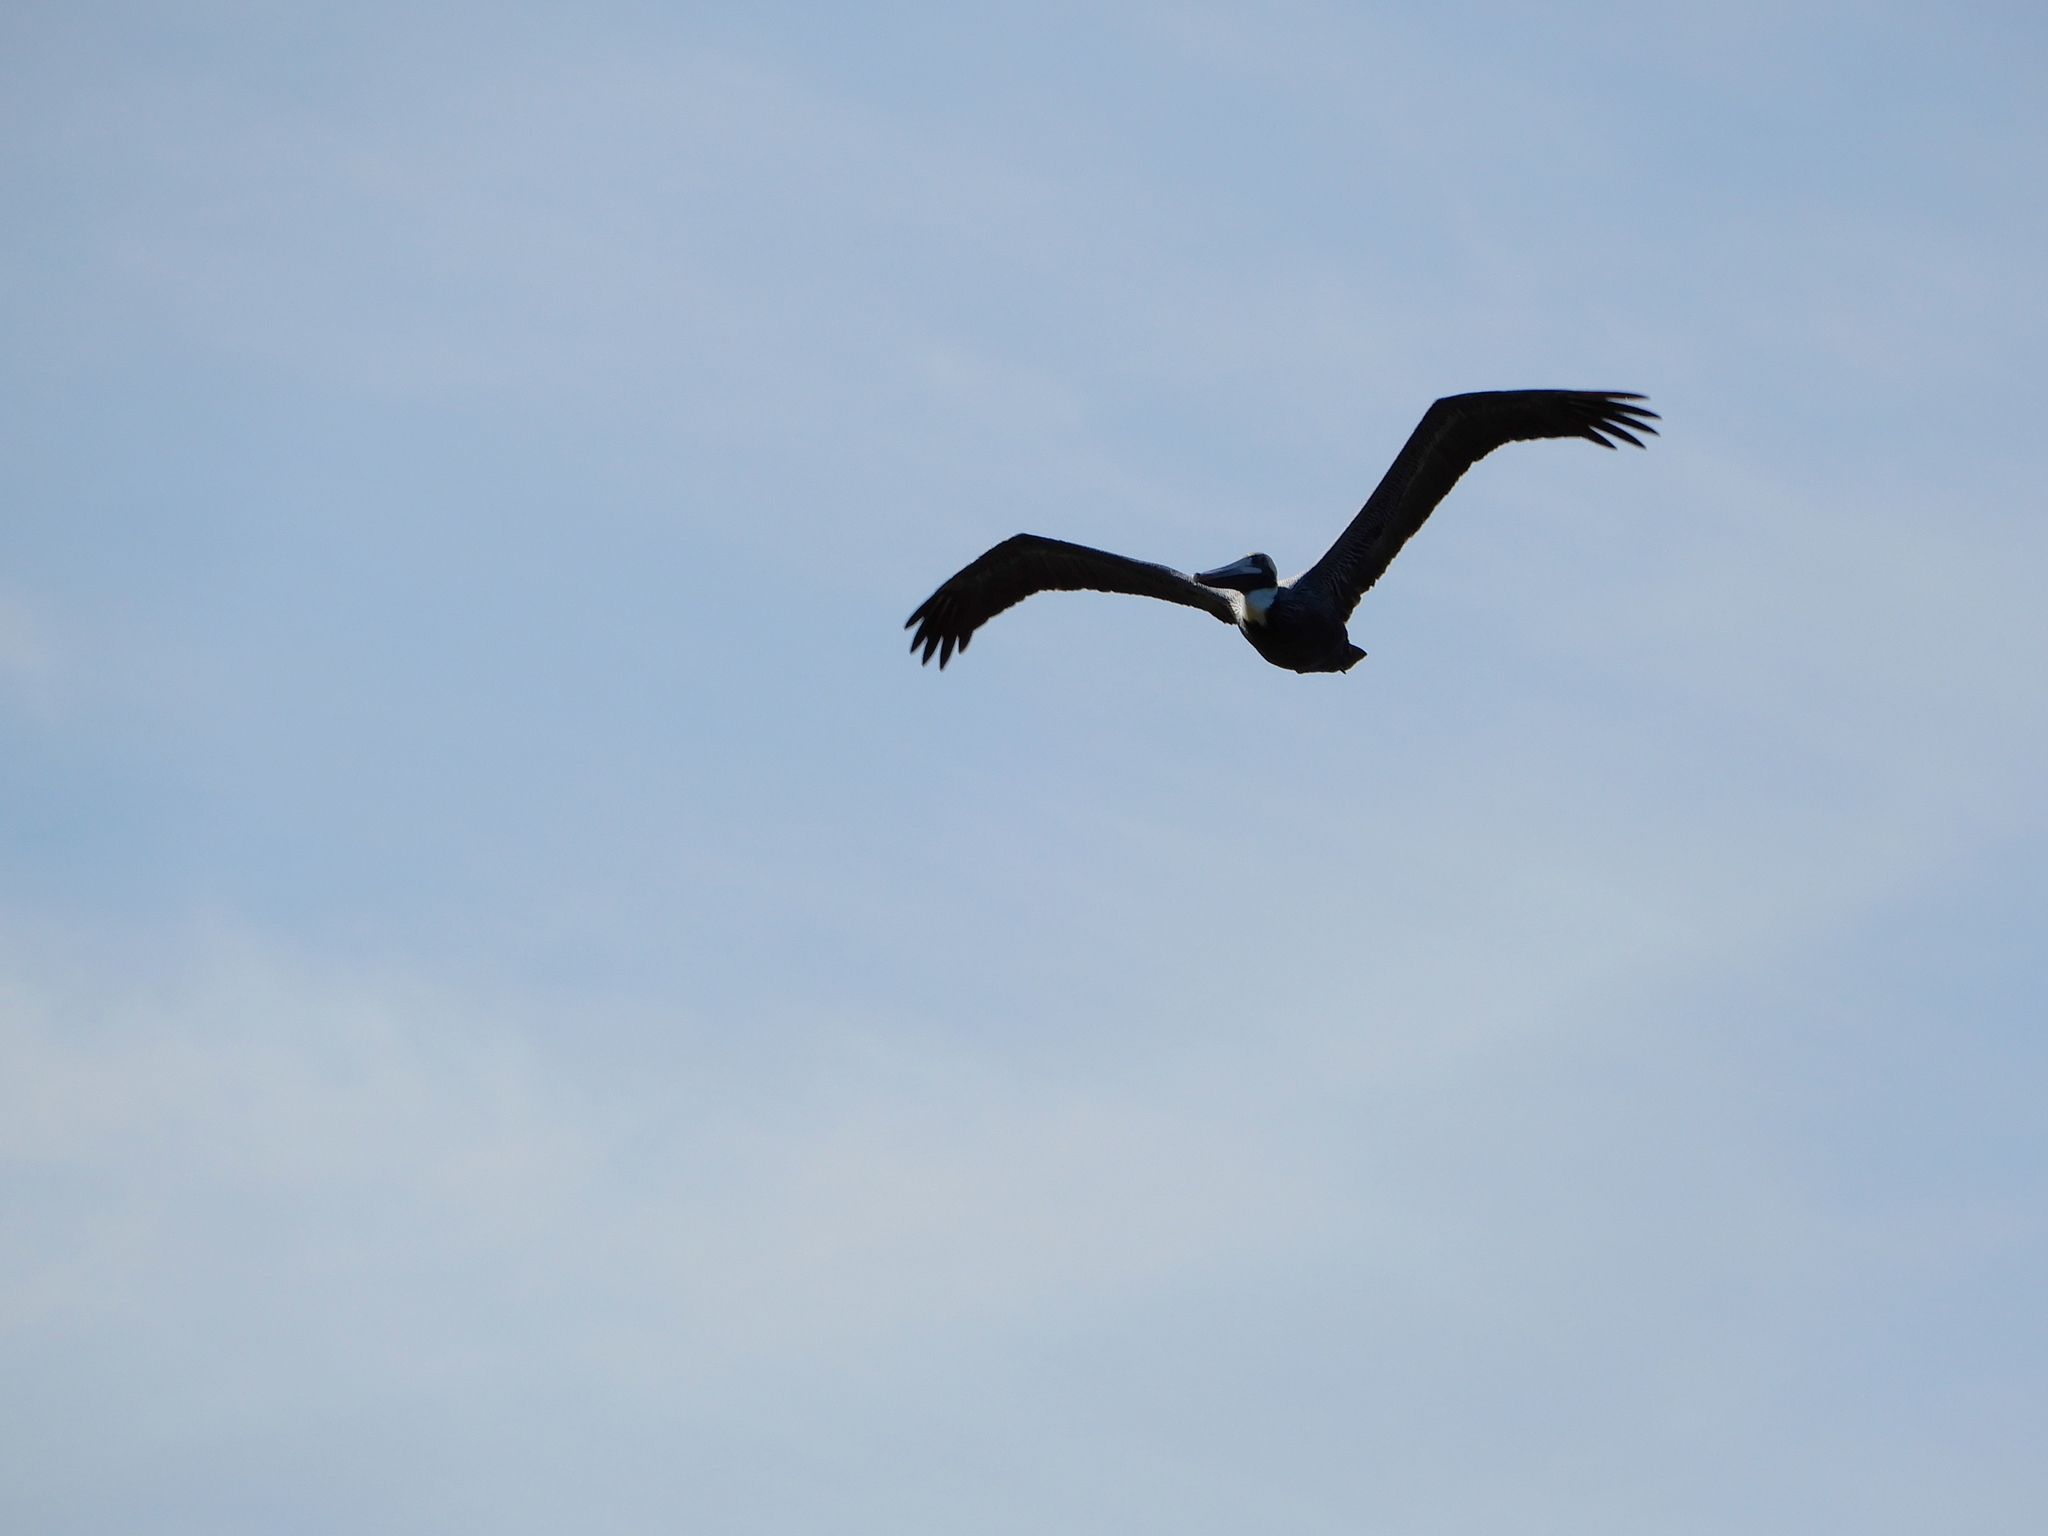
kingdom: Animalia
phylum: Chordata
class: Aves
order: Pelecaniformes
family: Pelecanidae
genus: Pelecanus
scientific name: Pelecanus occidentalis
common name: Brown pelican
